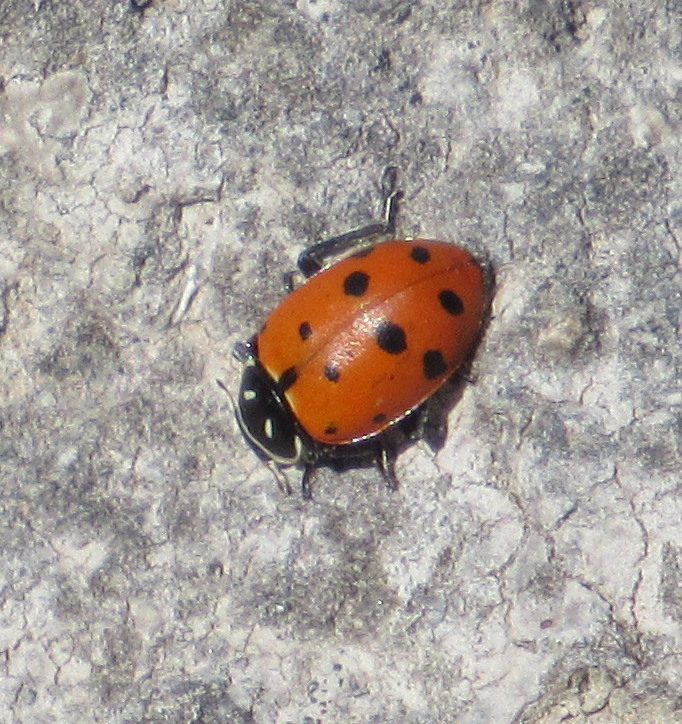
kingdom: Animalia
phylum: Arthropoda
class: Insecta
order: Coleoptera
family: Coccinellidae
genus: Hippodamia
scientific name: Hippodamia convergens
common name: Convergent lady beetle
